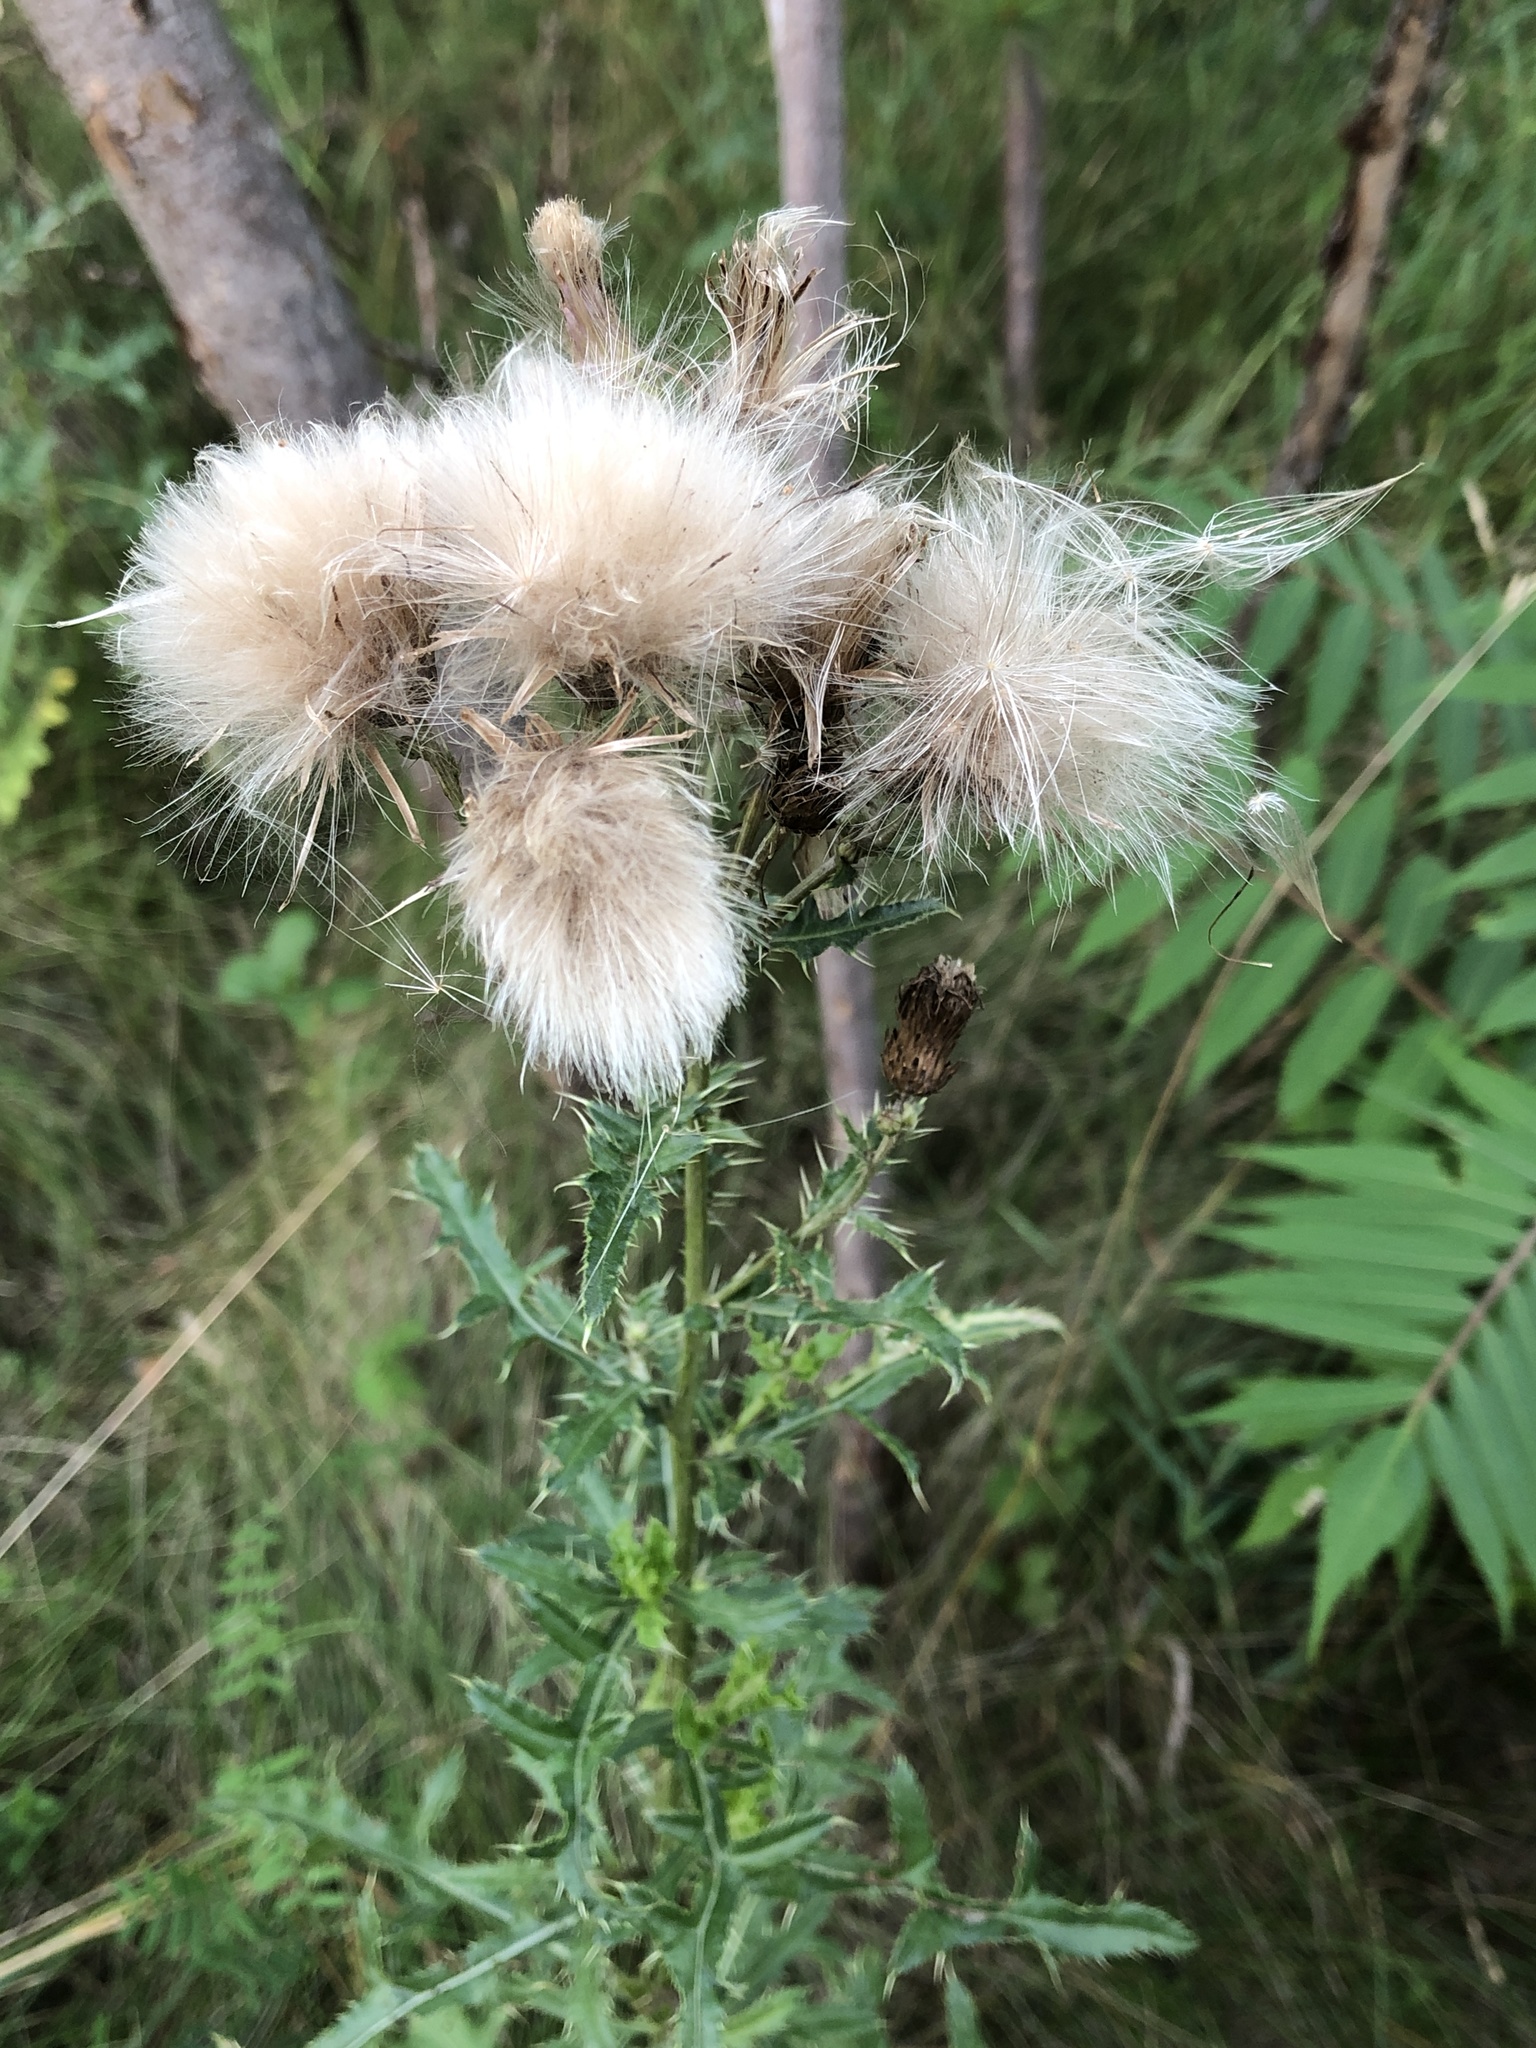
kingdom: Plantae
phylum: Tracheophyta
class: Magnoliopsida
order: Asterales
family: Asteraceae
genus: Cirsium
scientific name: Cirsium arvense
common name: Creeping thistle
